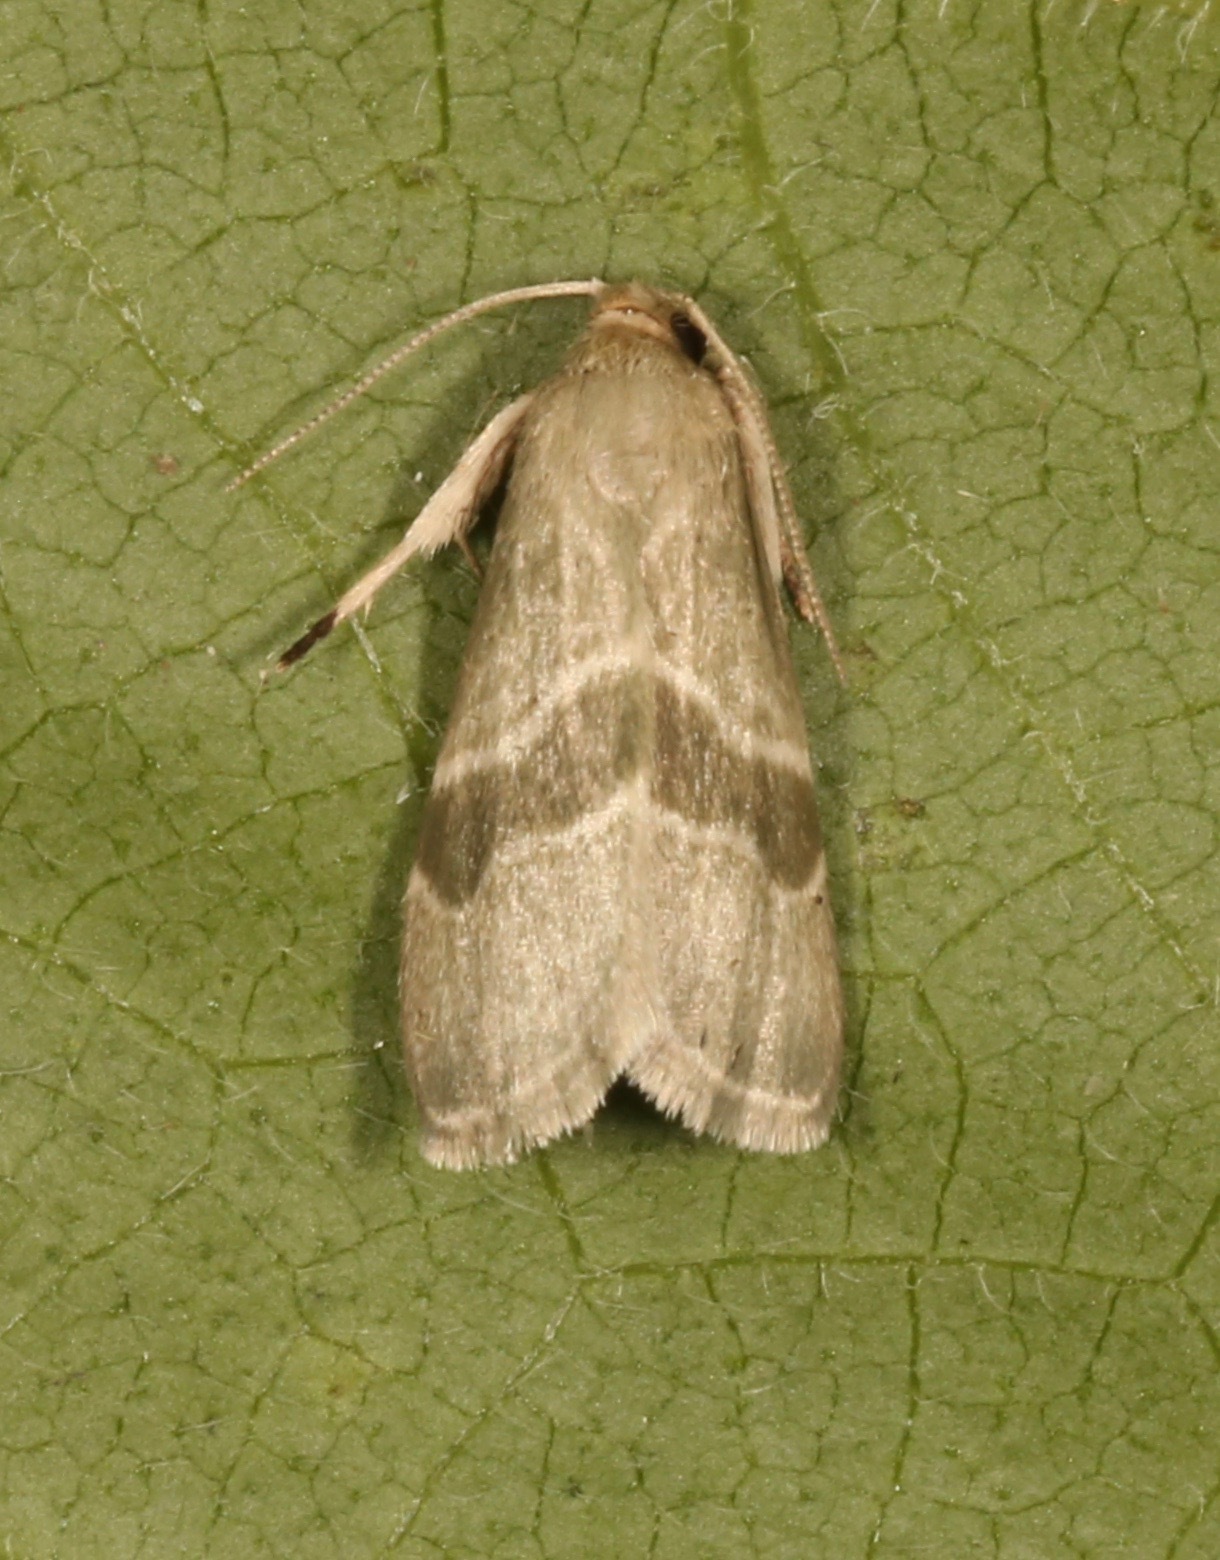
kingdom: Animalia
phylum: Arthropoda
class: Insecta
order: Lepidoptera
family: Pyralidae
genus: Anemosella
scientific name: Anemosella viridalis
